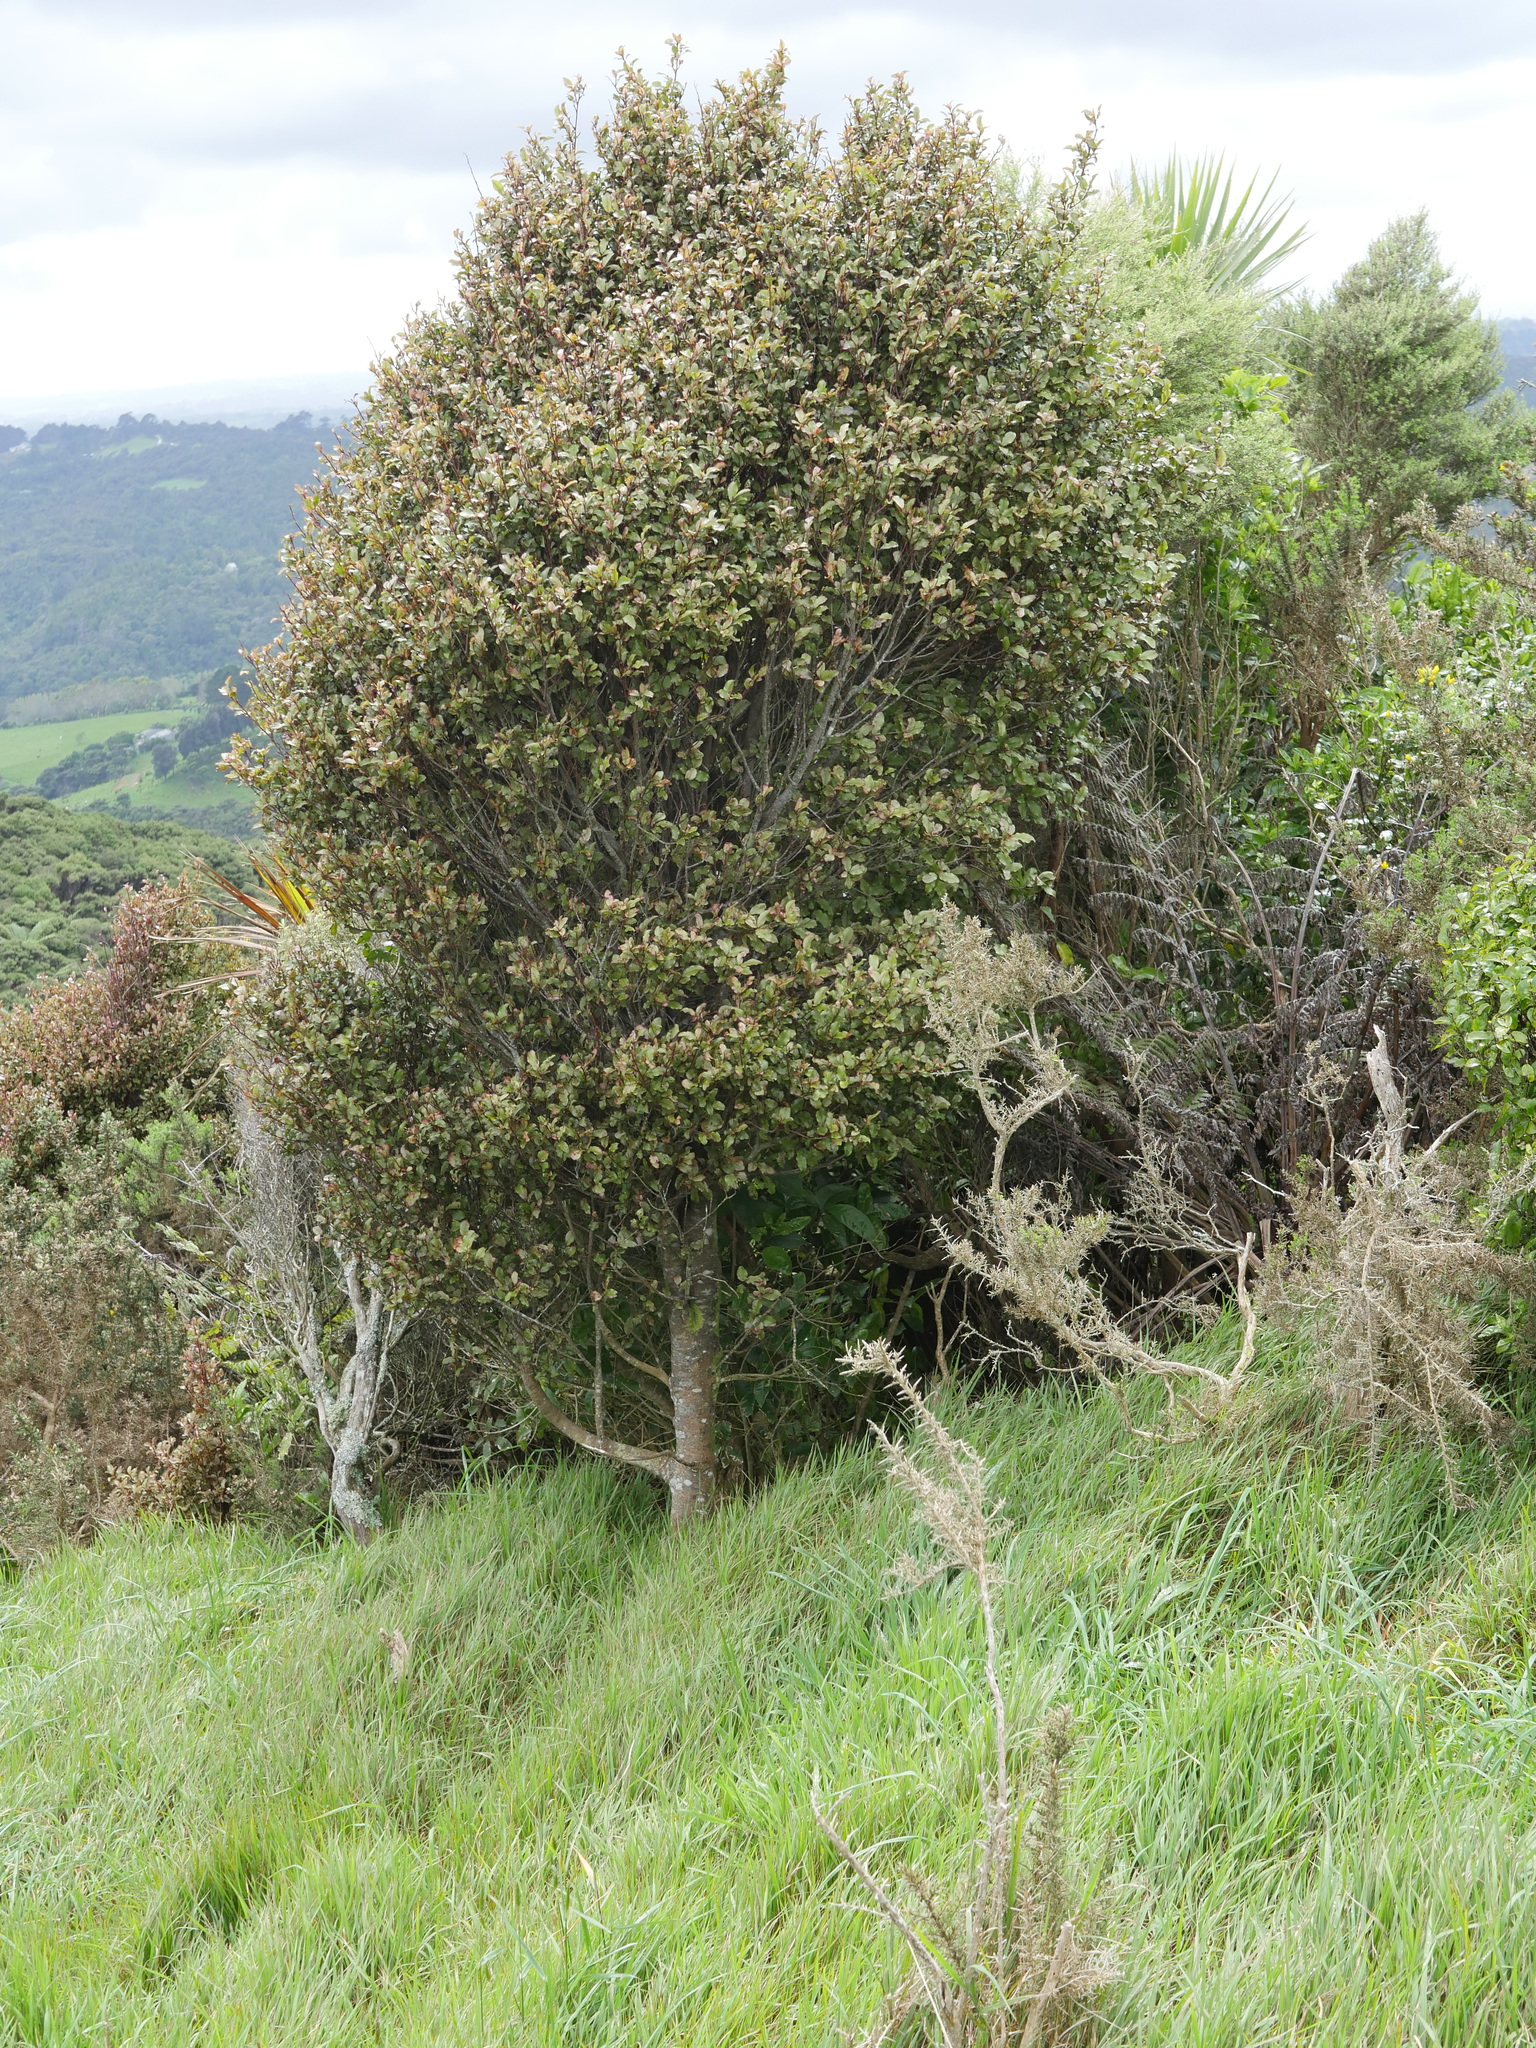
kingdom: Plantae
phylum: Tracheophyta
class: Magnoliopsida
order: Ericales
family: Primulaceae
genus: Myrsine
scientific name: Myrsine australis
